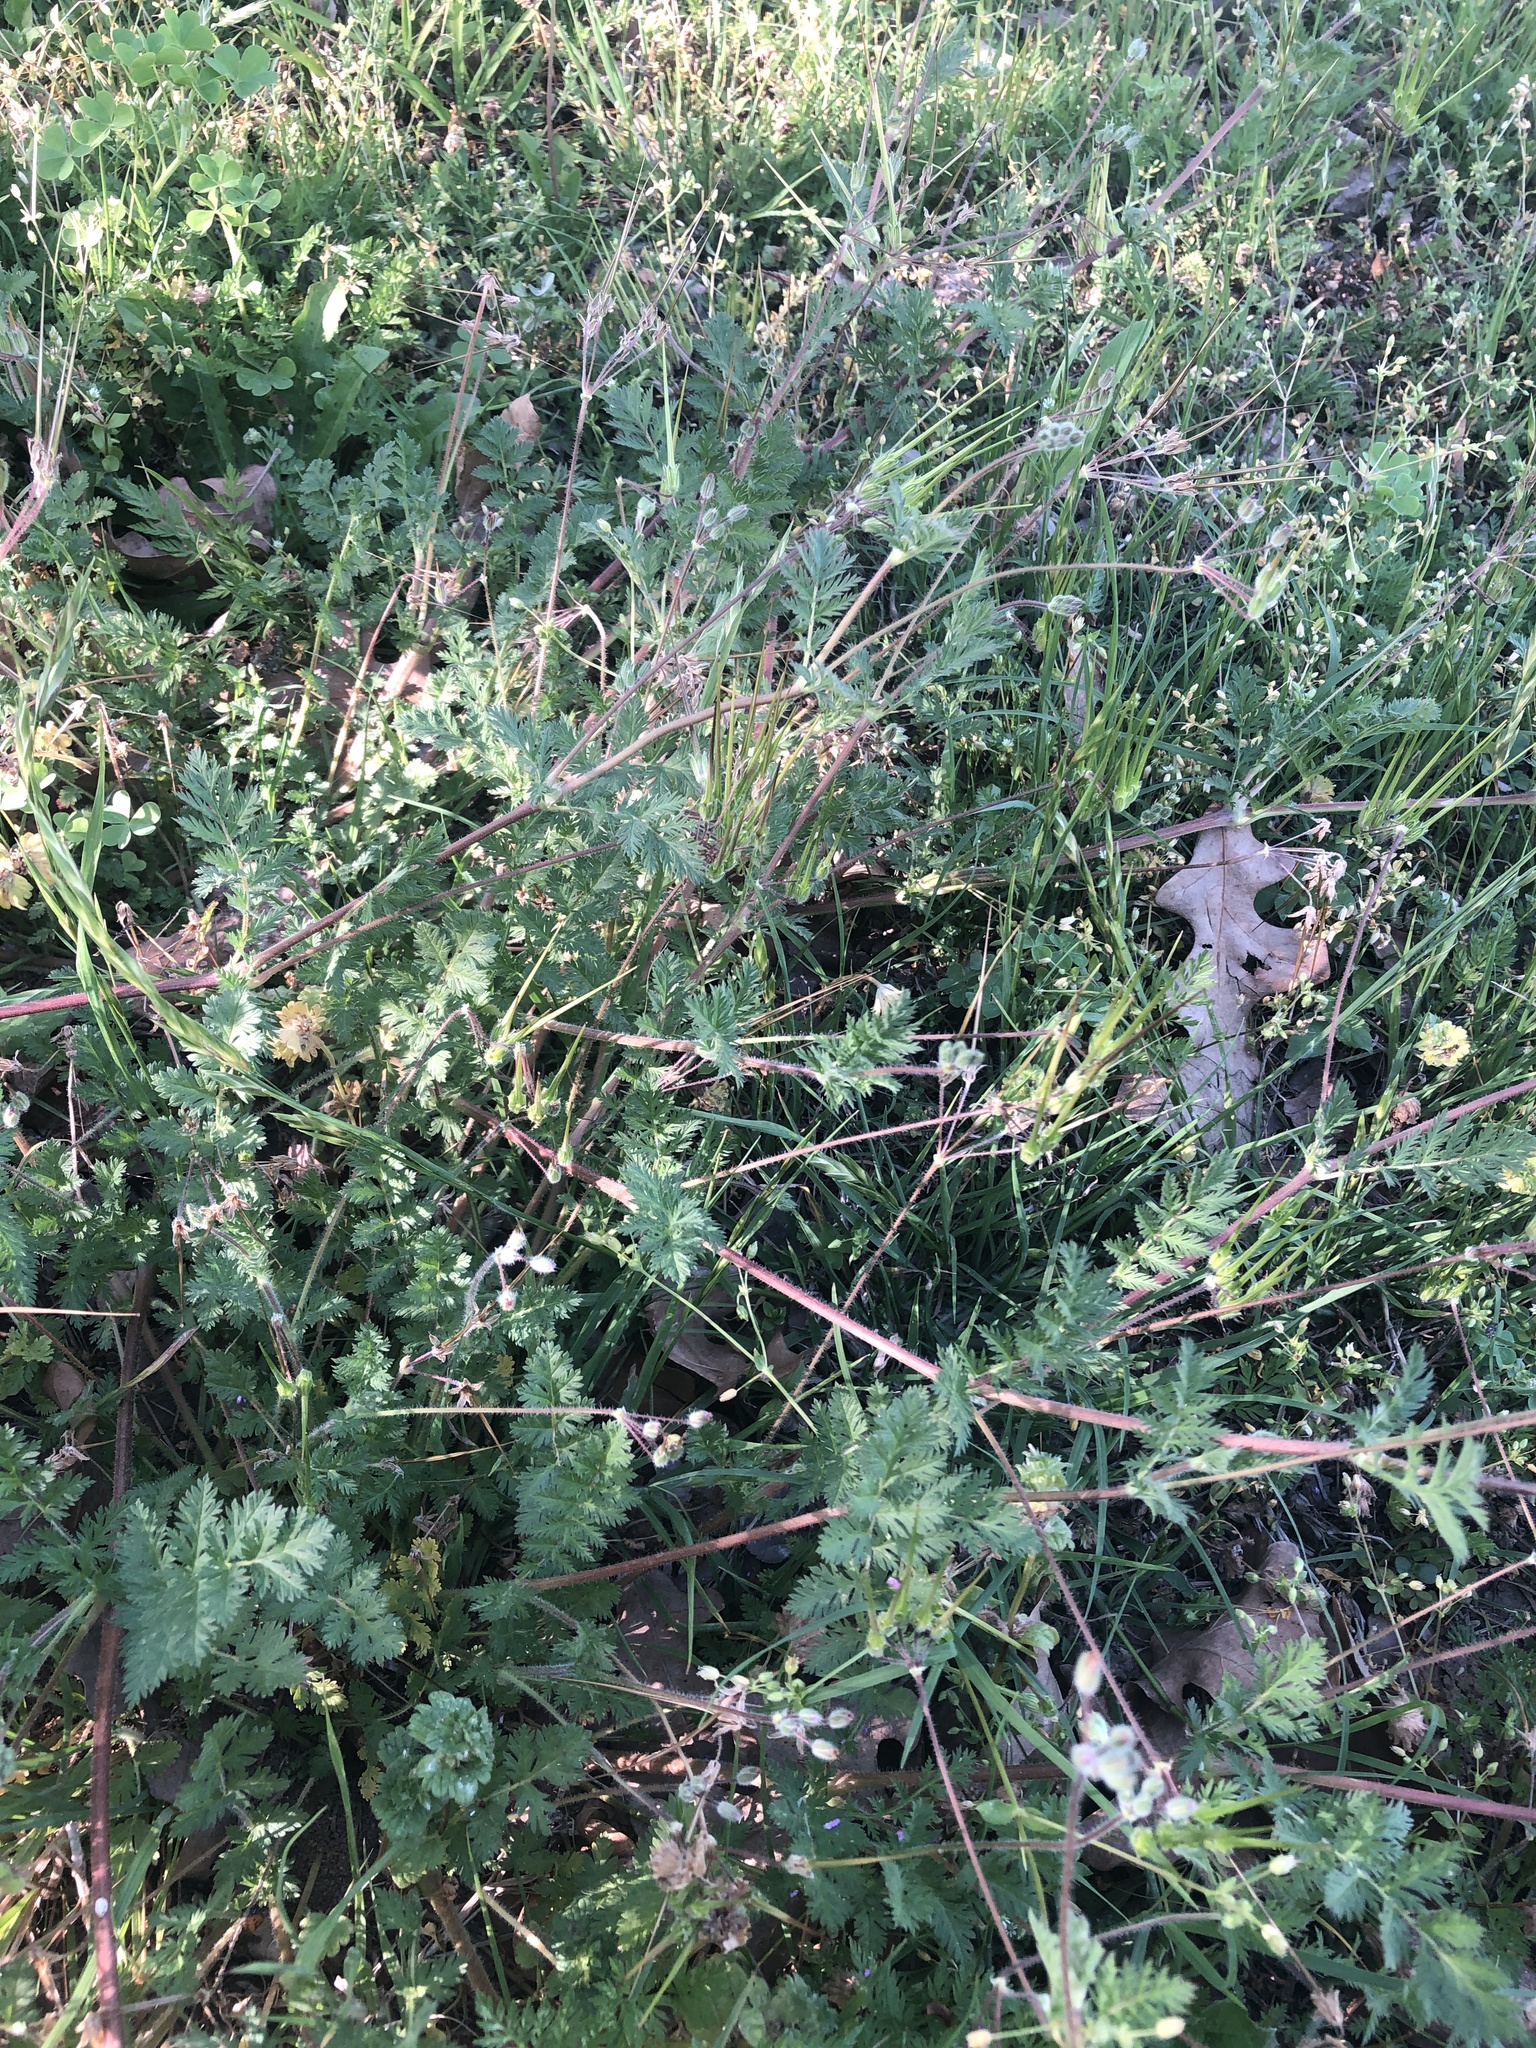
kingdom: Plantae
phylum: Tracheophyta
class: Magnoliopsida
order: Geraniales
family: Geraniaceae
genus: Erodium
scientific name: Erodium cicutarium
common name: Common stork's-bill
